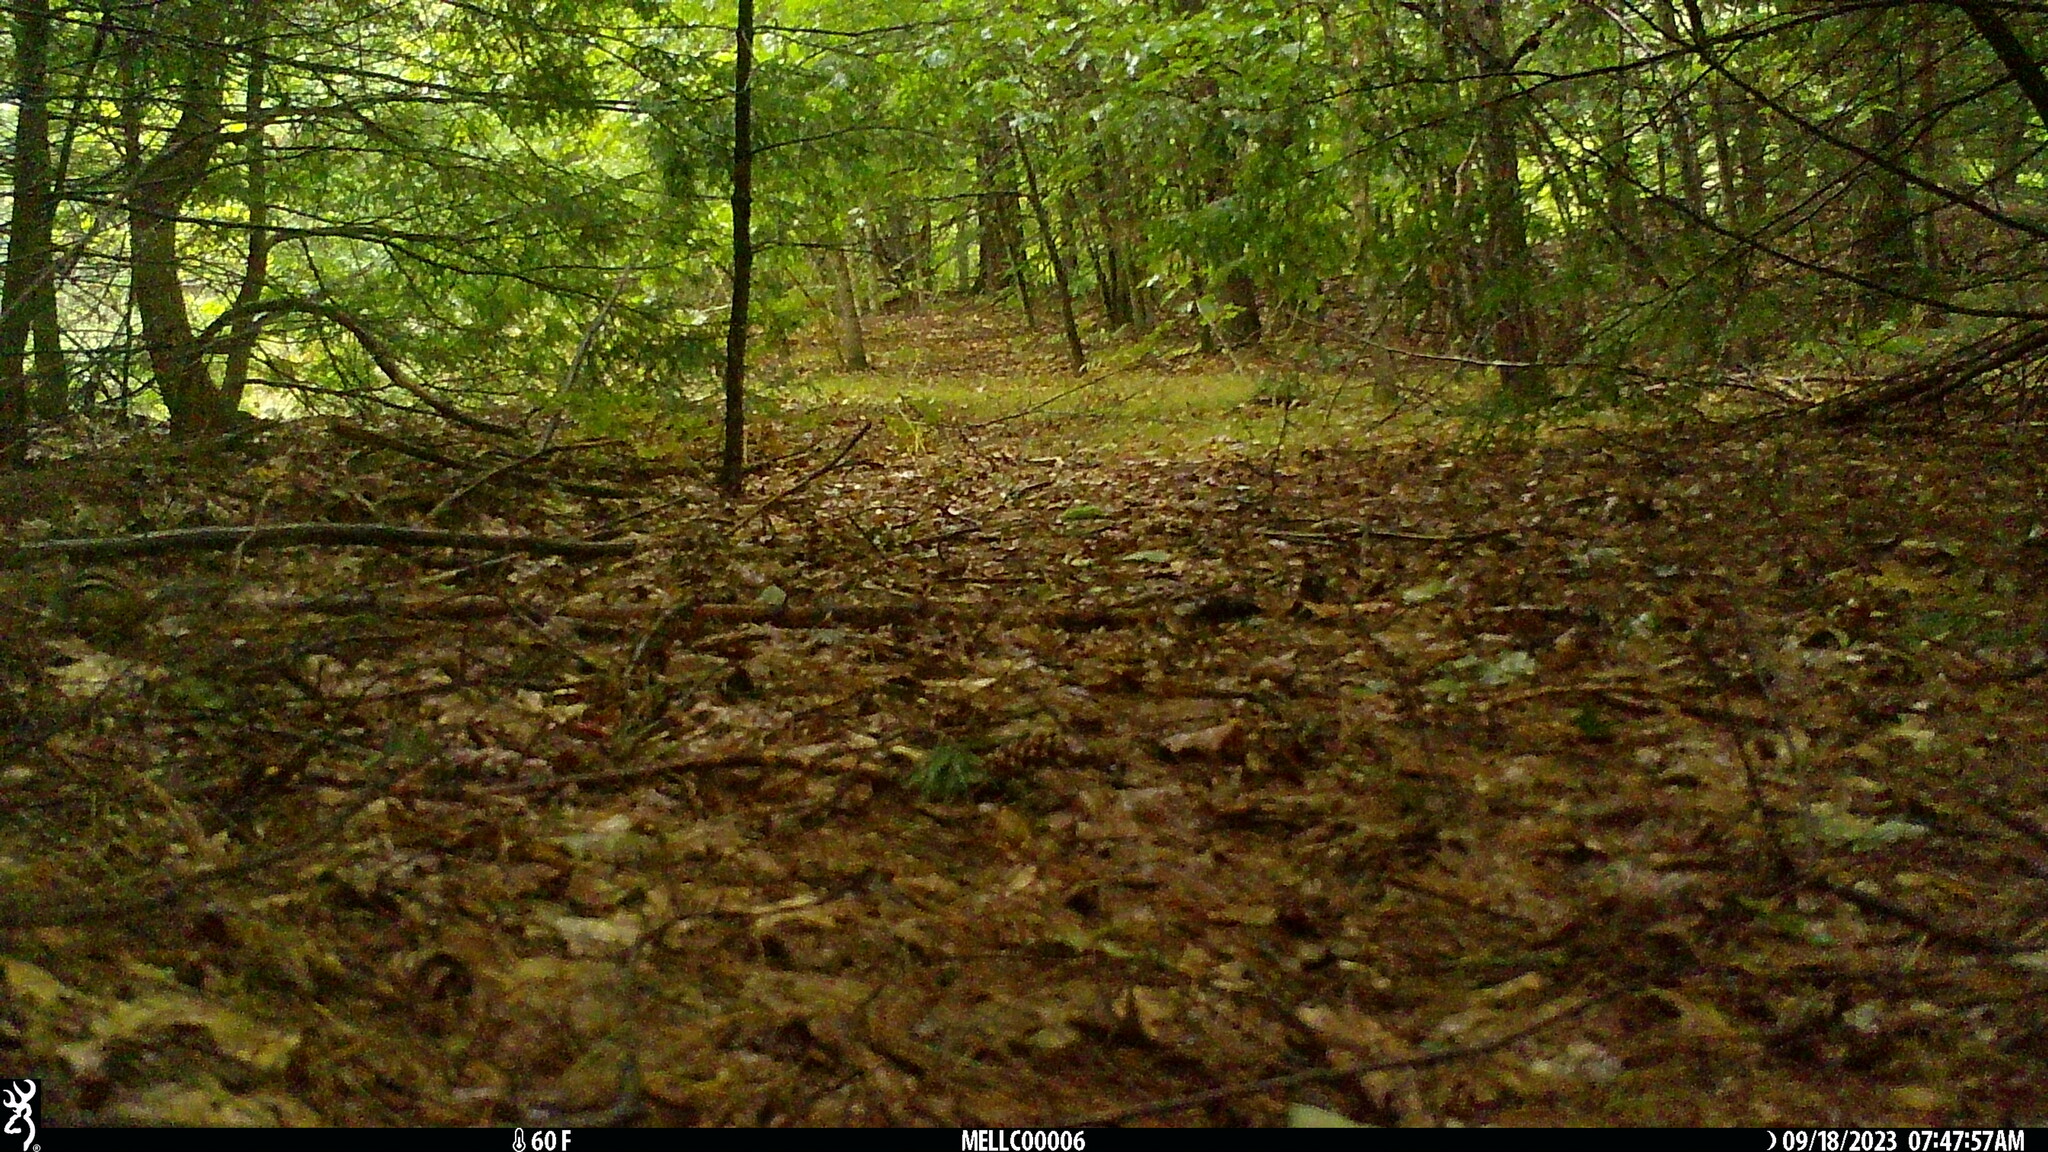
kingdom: Animalia
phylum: Chordata
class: Mammalia
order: Rodentia
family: Sciuridae
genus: Tamias
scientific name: Tamias striatus
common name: Eastern chipmunk
